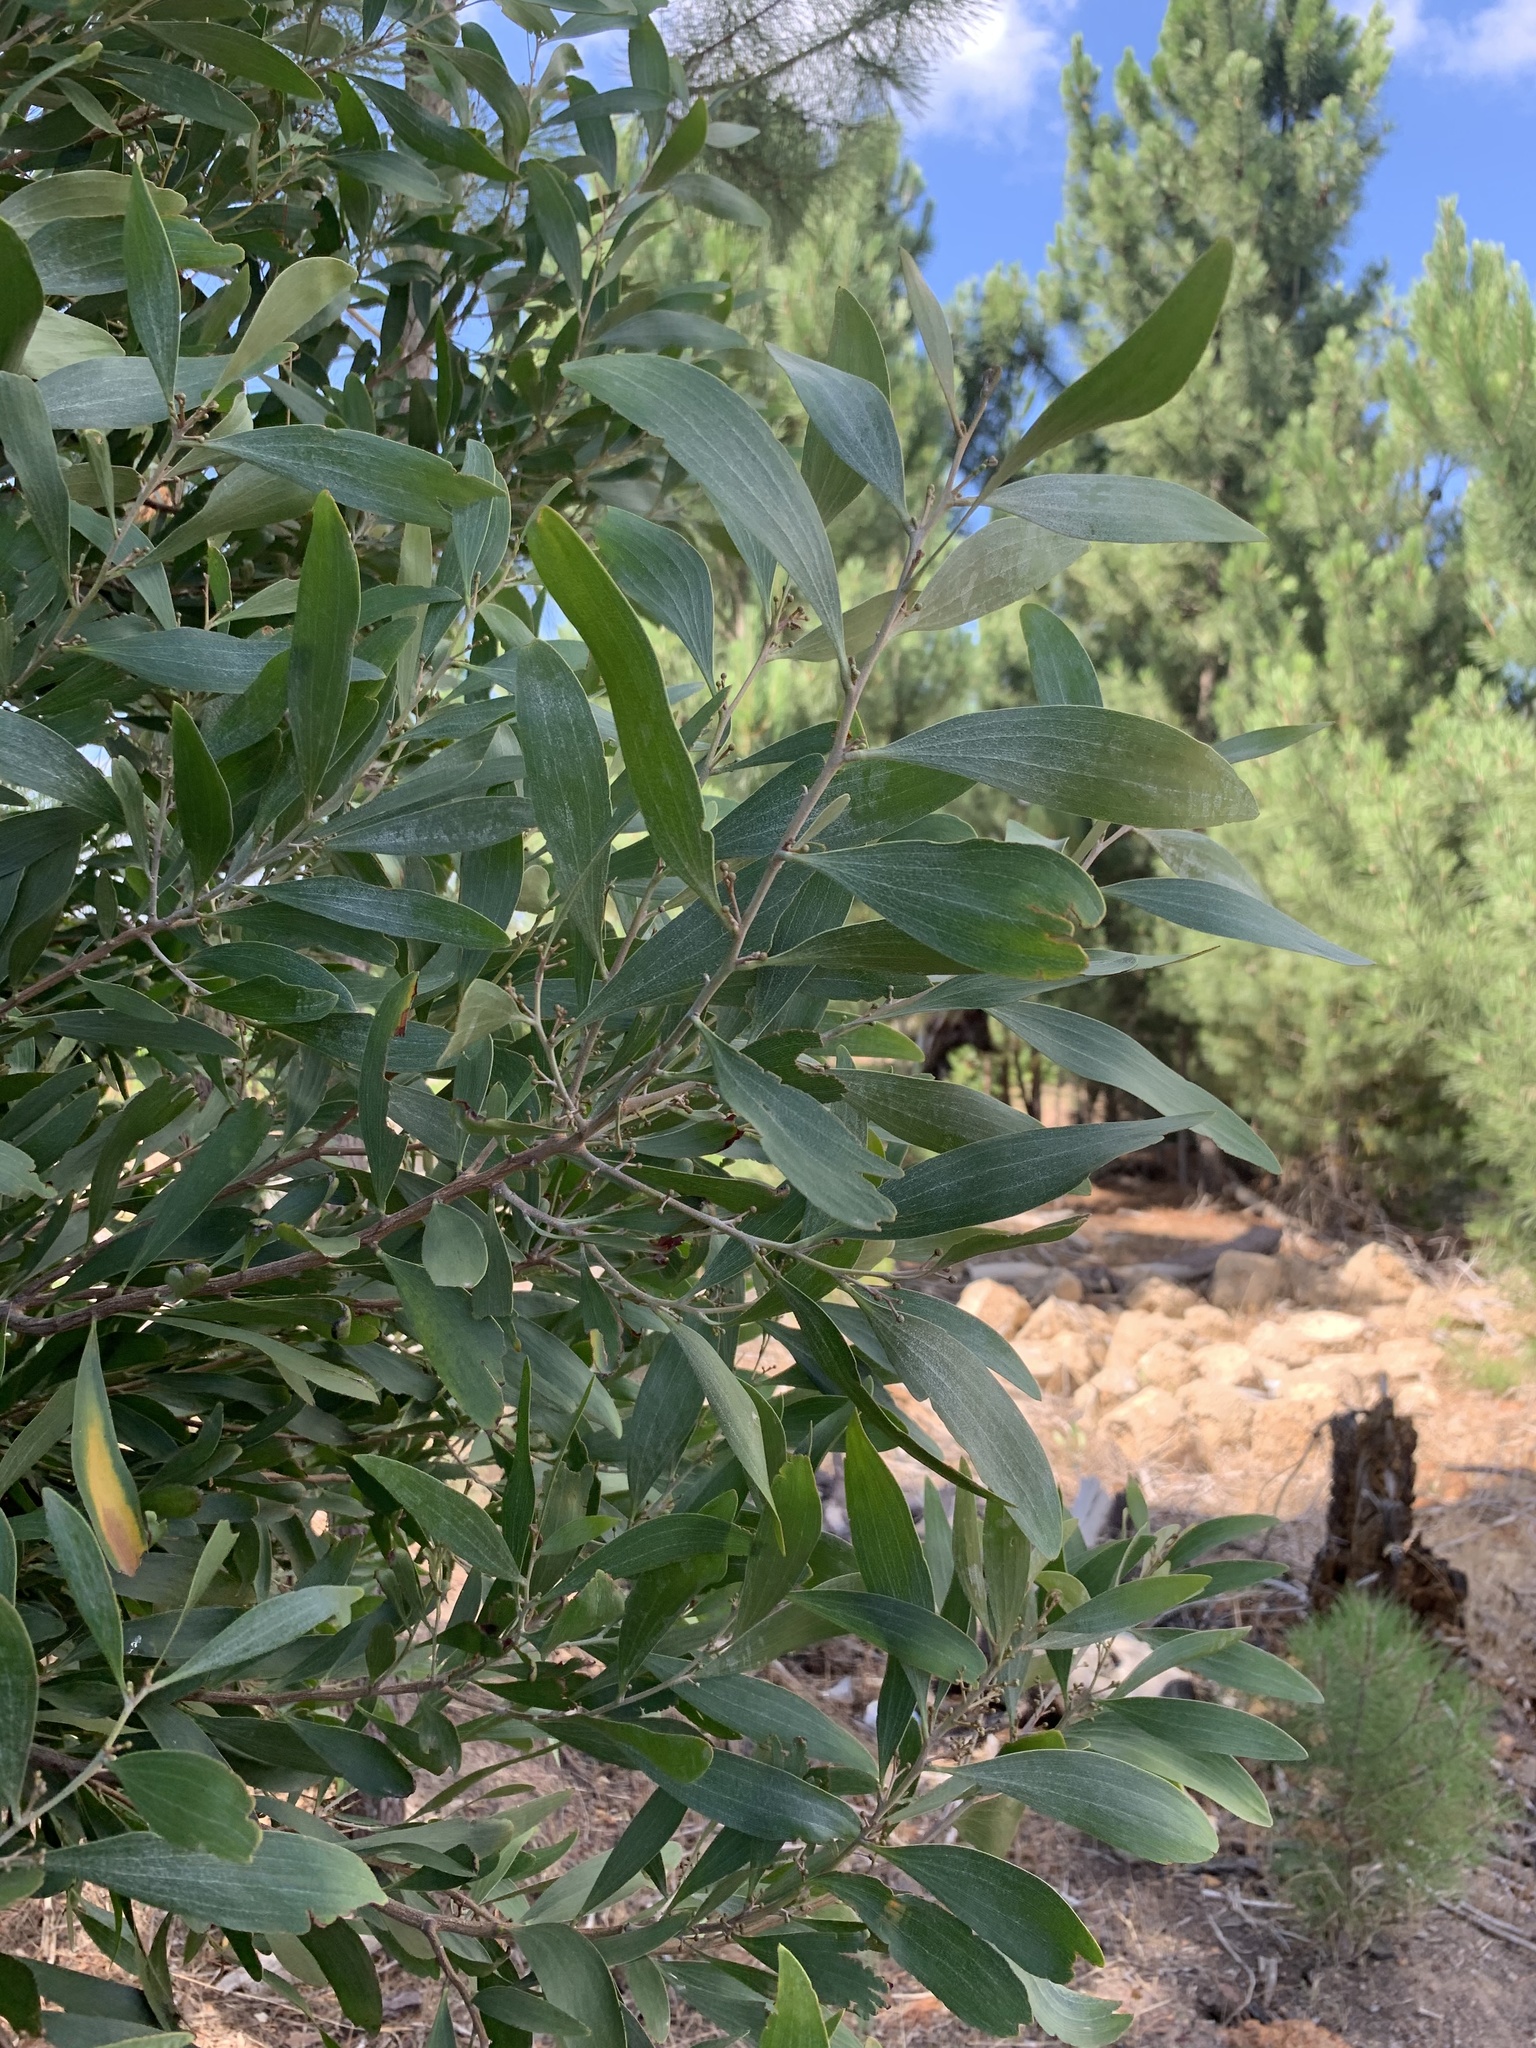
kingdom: Plantae
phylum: Tracheophyta
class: Magnoliopsida
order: Fabales
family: Fabaceae
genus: Acacia
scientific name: Acacia melanoxylon
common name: Blackwood
